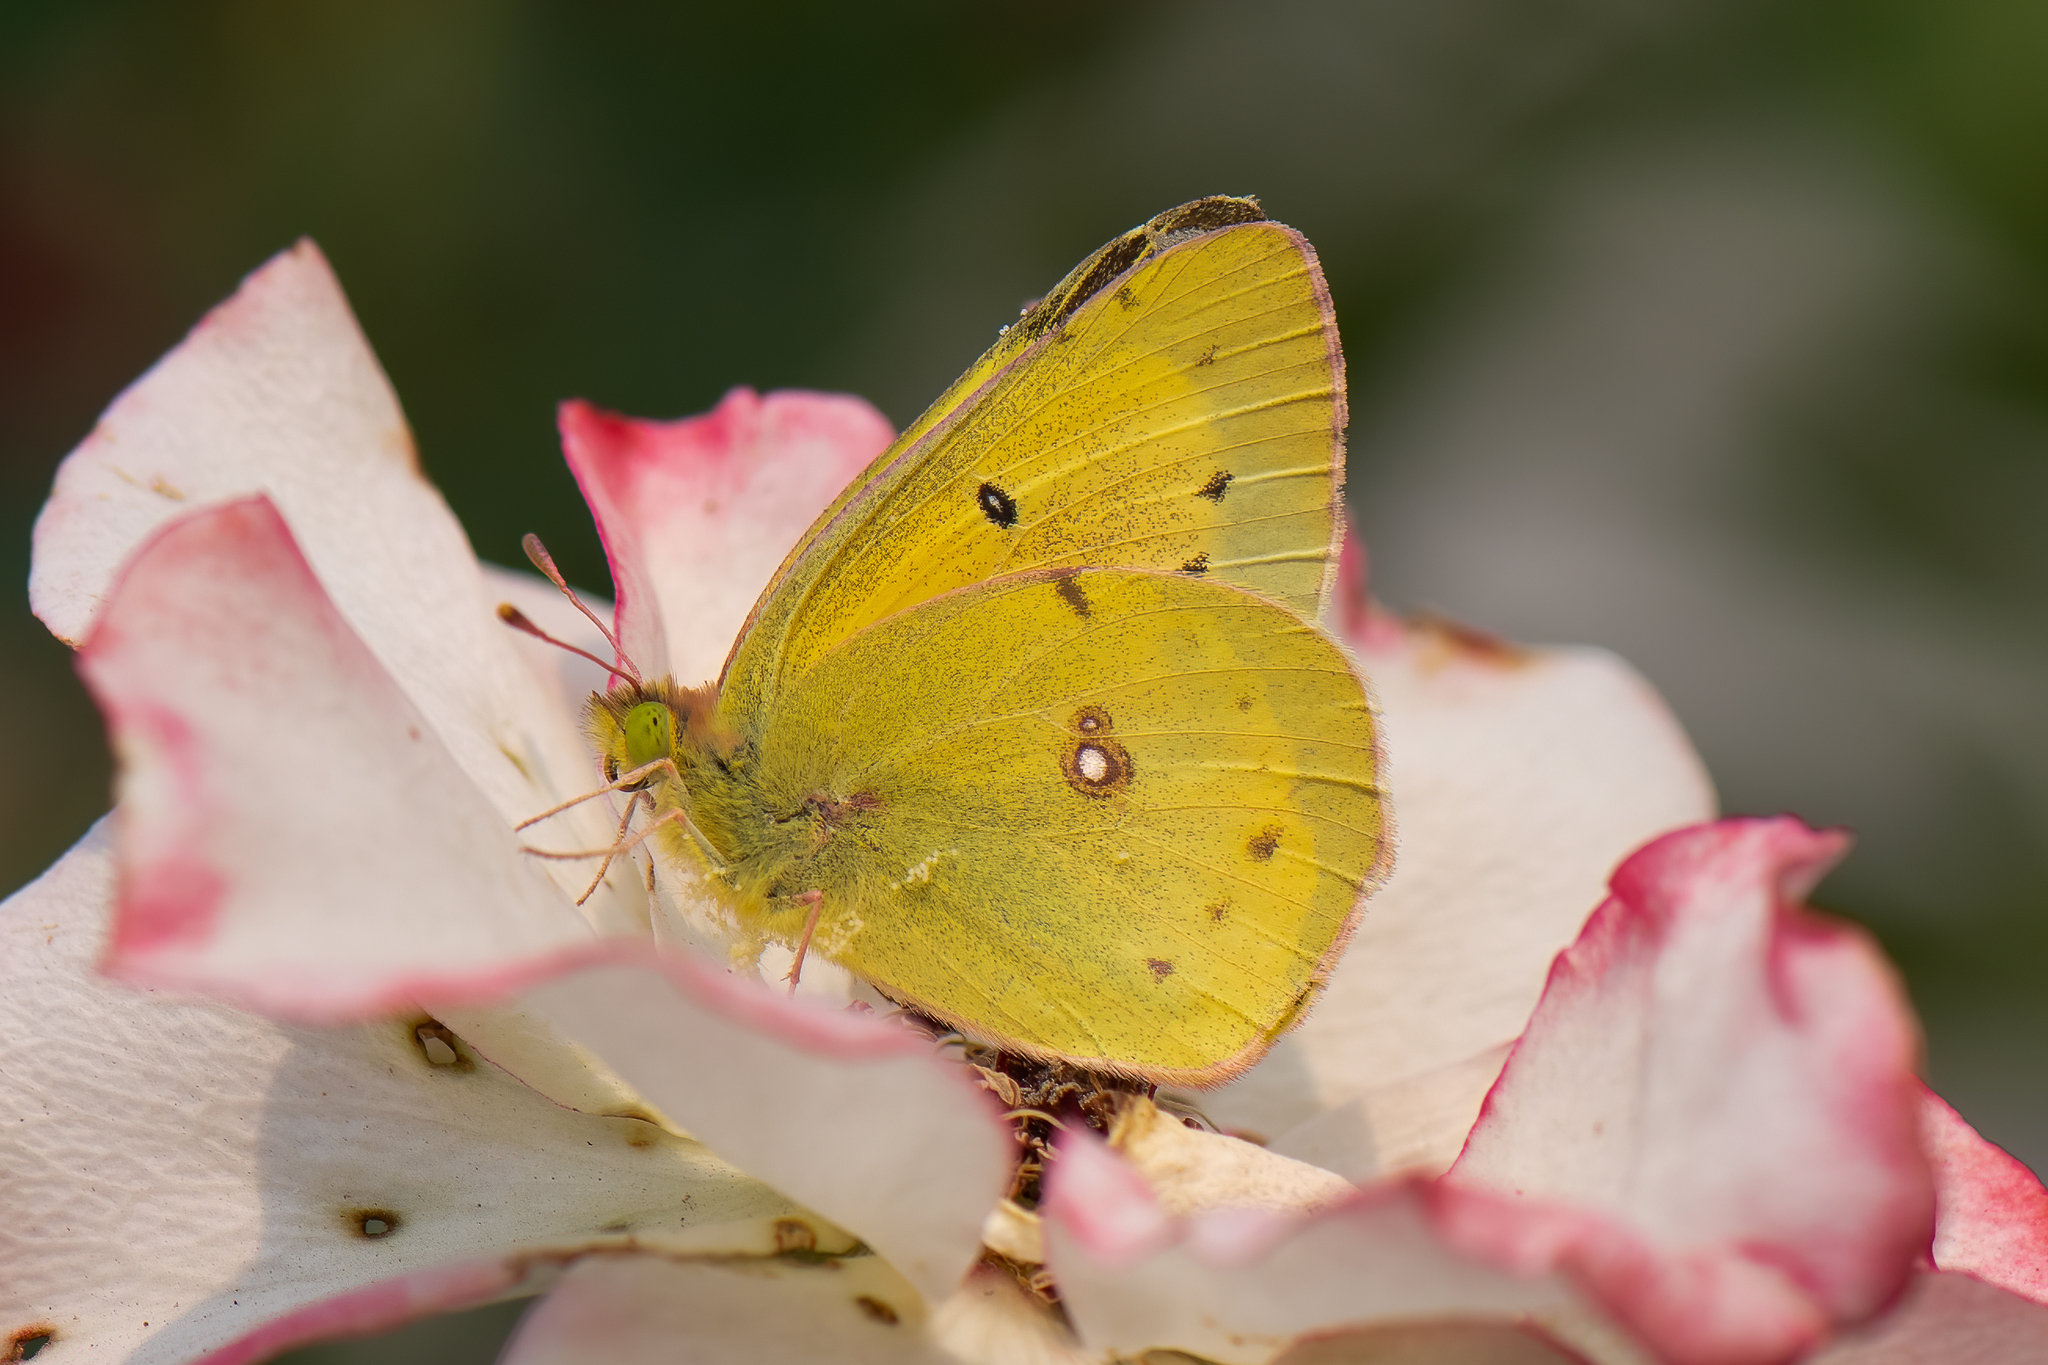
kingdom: Animalia
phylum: Arthropoda
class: Insecta
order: Lepidoptera
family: Pieridae
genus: Colias
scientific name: Colias eurytheme
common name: Alfalfa butterfly
